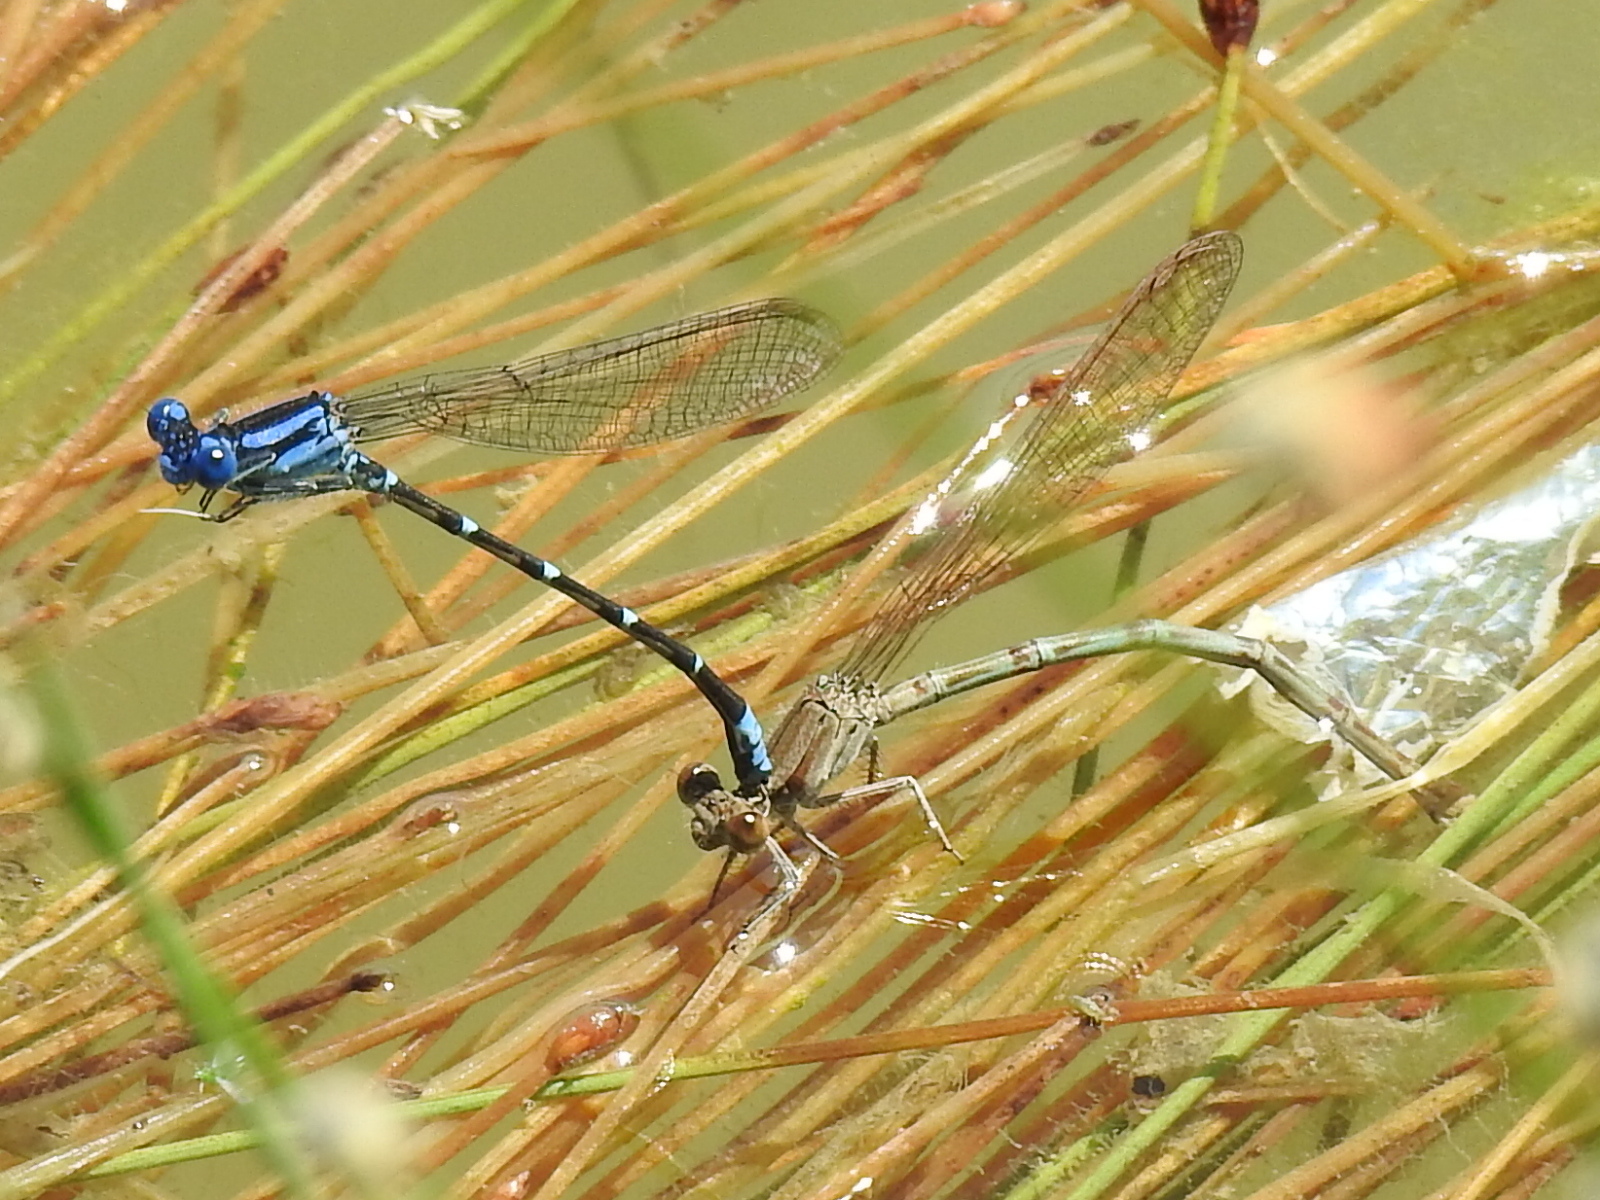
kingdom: Animalia
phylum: Arthropoda
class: Insecta
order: Odonata
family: Coenagrionidae
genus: Argia
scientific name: Argia sedula
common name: Blue-ringed dancer
